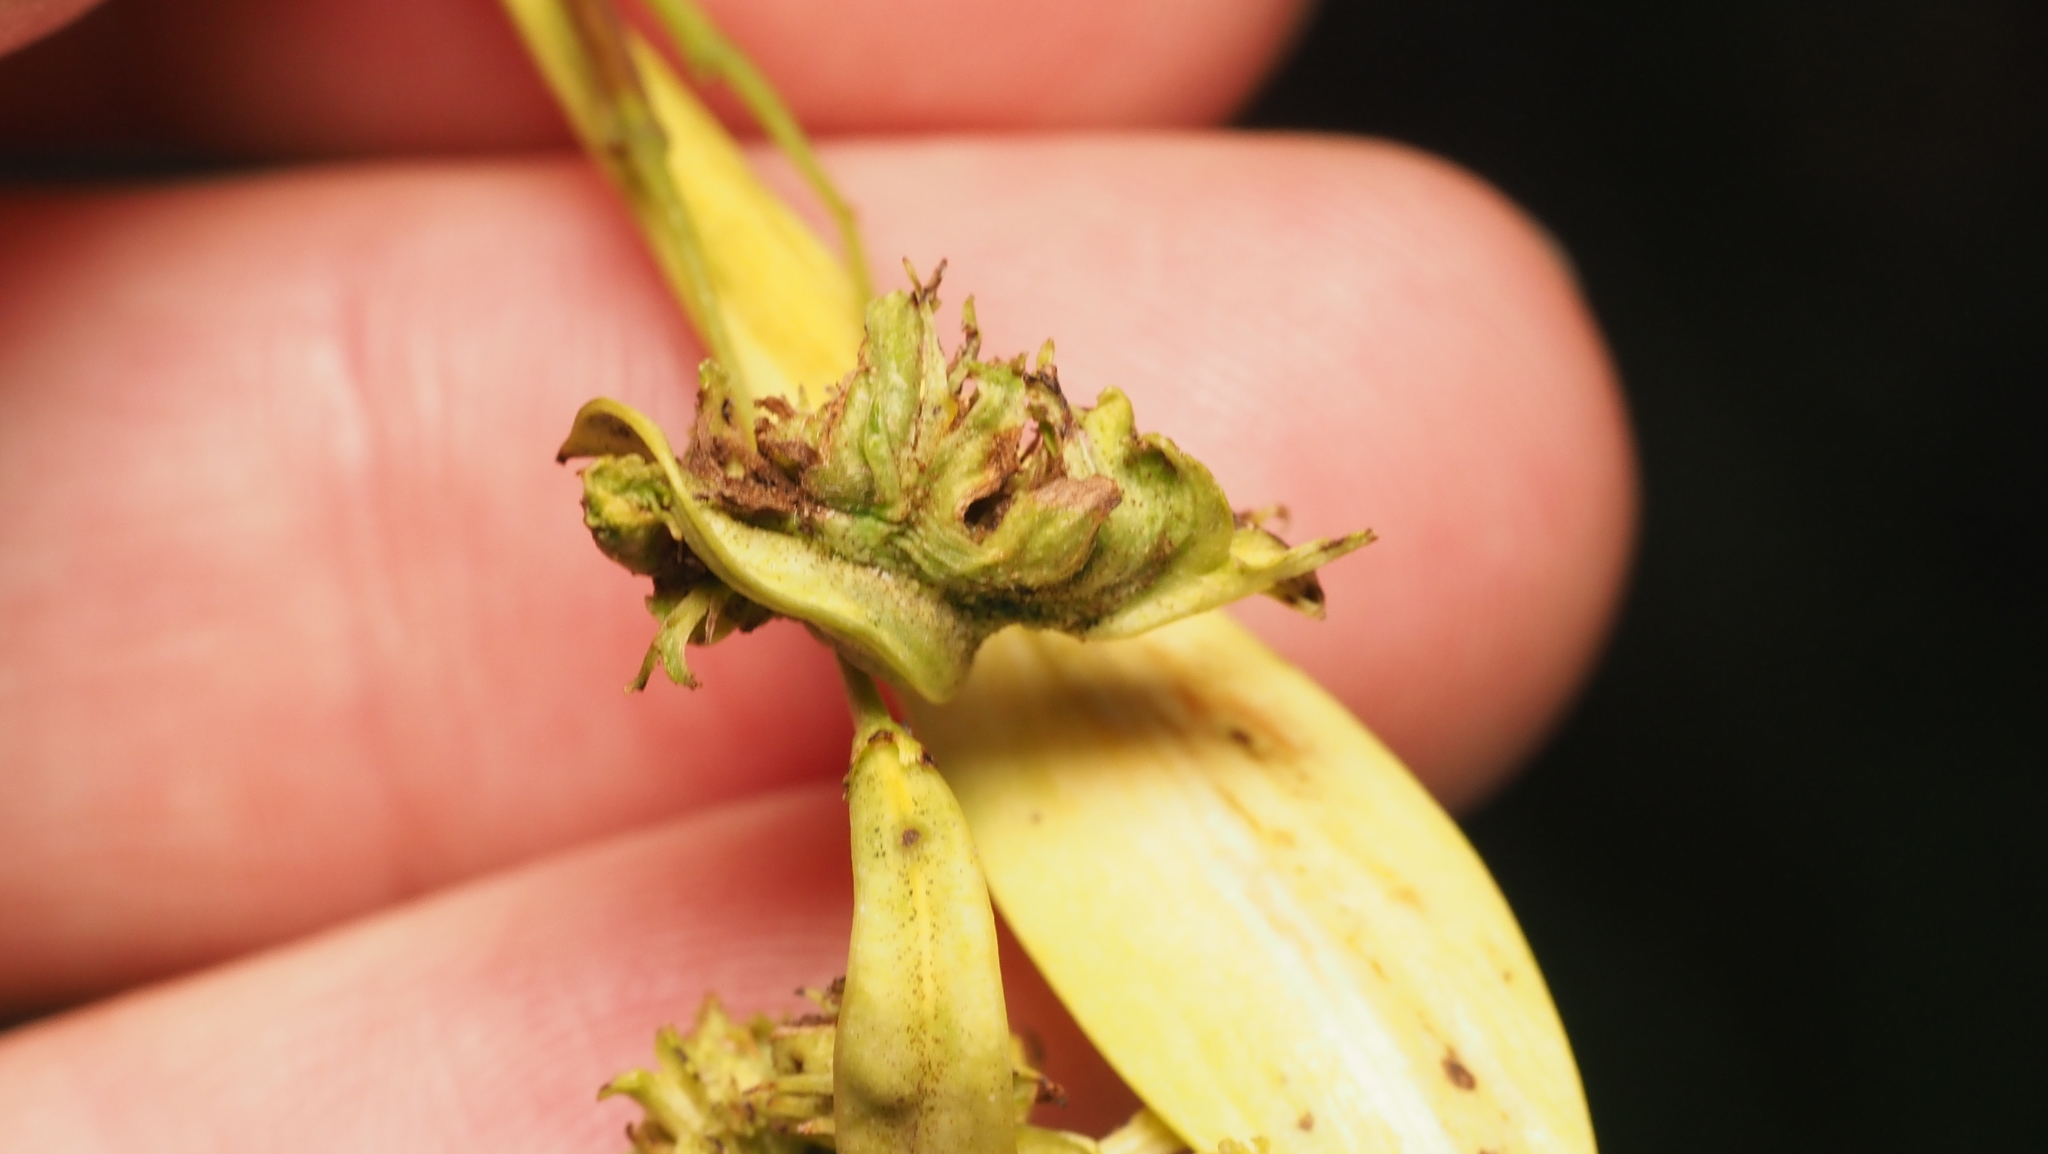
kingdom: Animalia
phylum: Arthropoda
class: Arachnida
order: Trombidiformes
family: Eriophyidae
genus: Aceria
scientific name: Aceria fraxiniflora
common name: Ash flower gall mite
